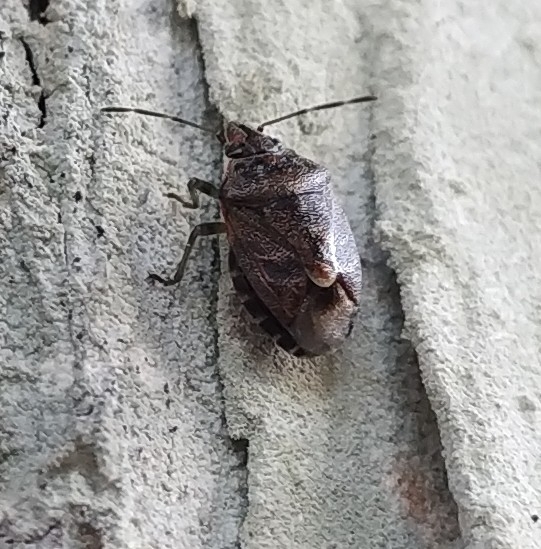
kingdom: Animalia
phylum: Arthropoda
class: Insecta
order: Hemiptera
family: Pentatomidae
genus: Holcogaster
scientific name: Holcogaster fibulata
